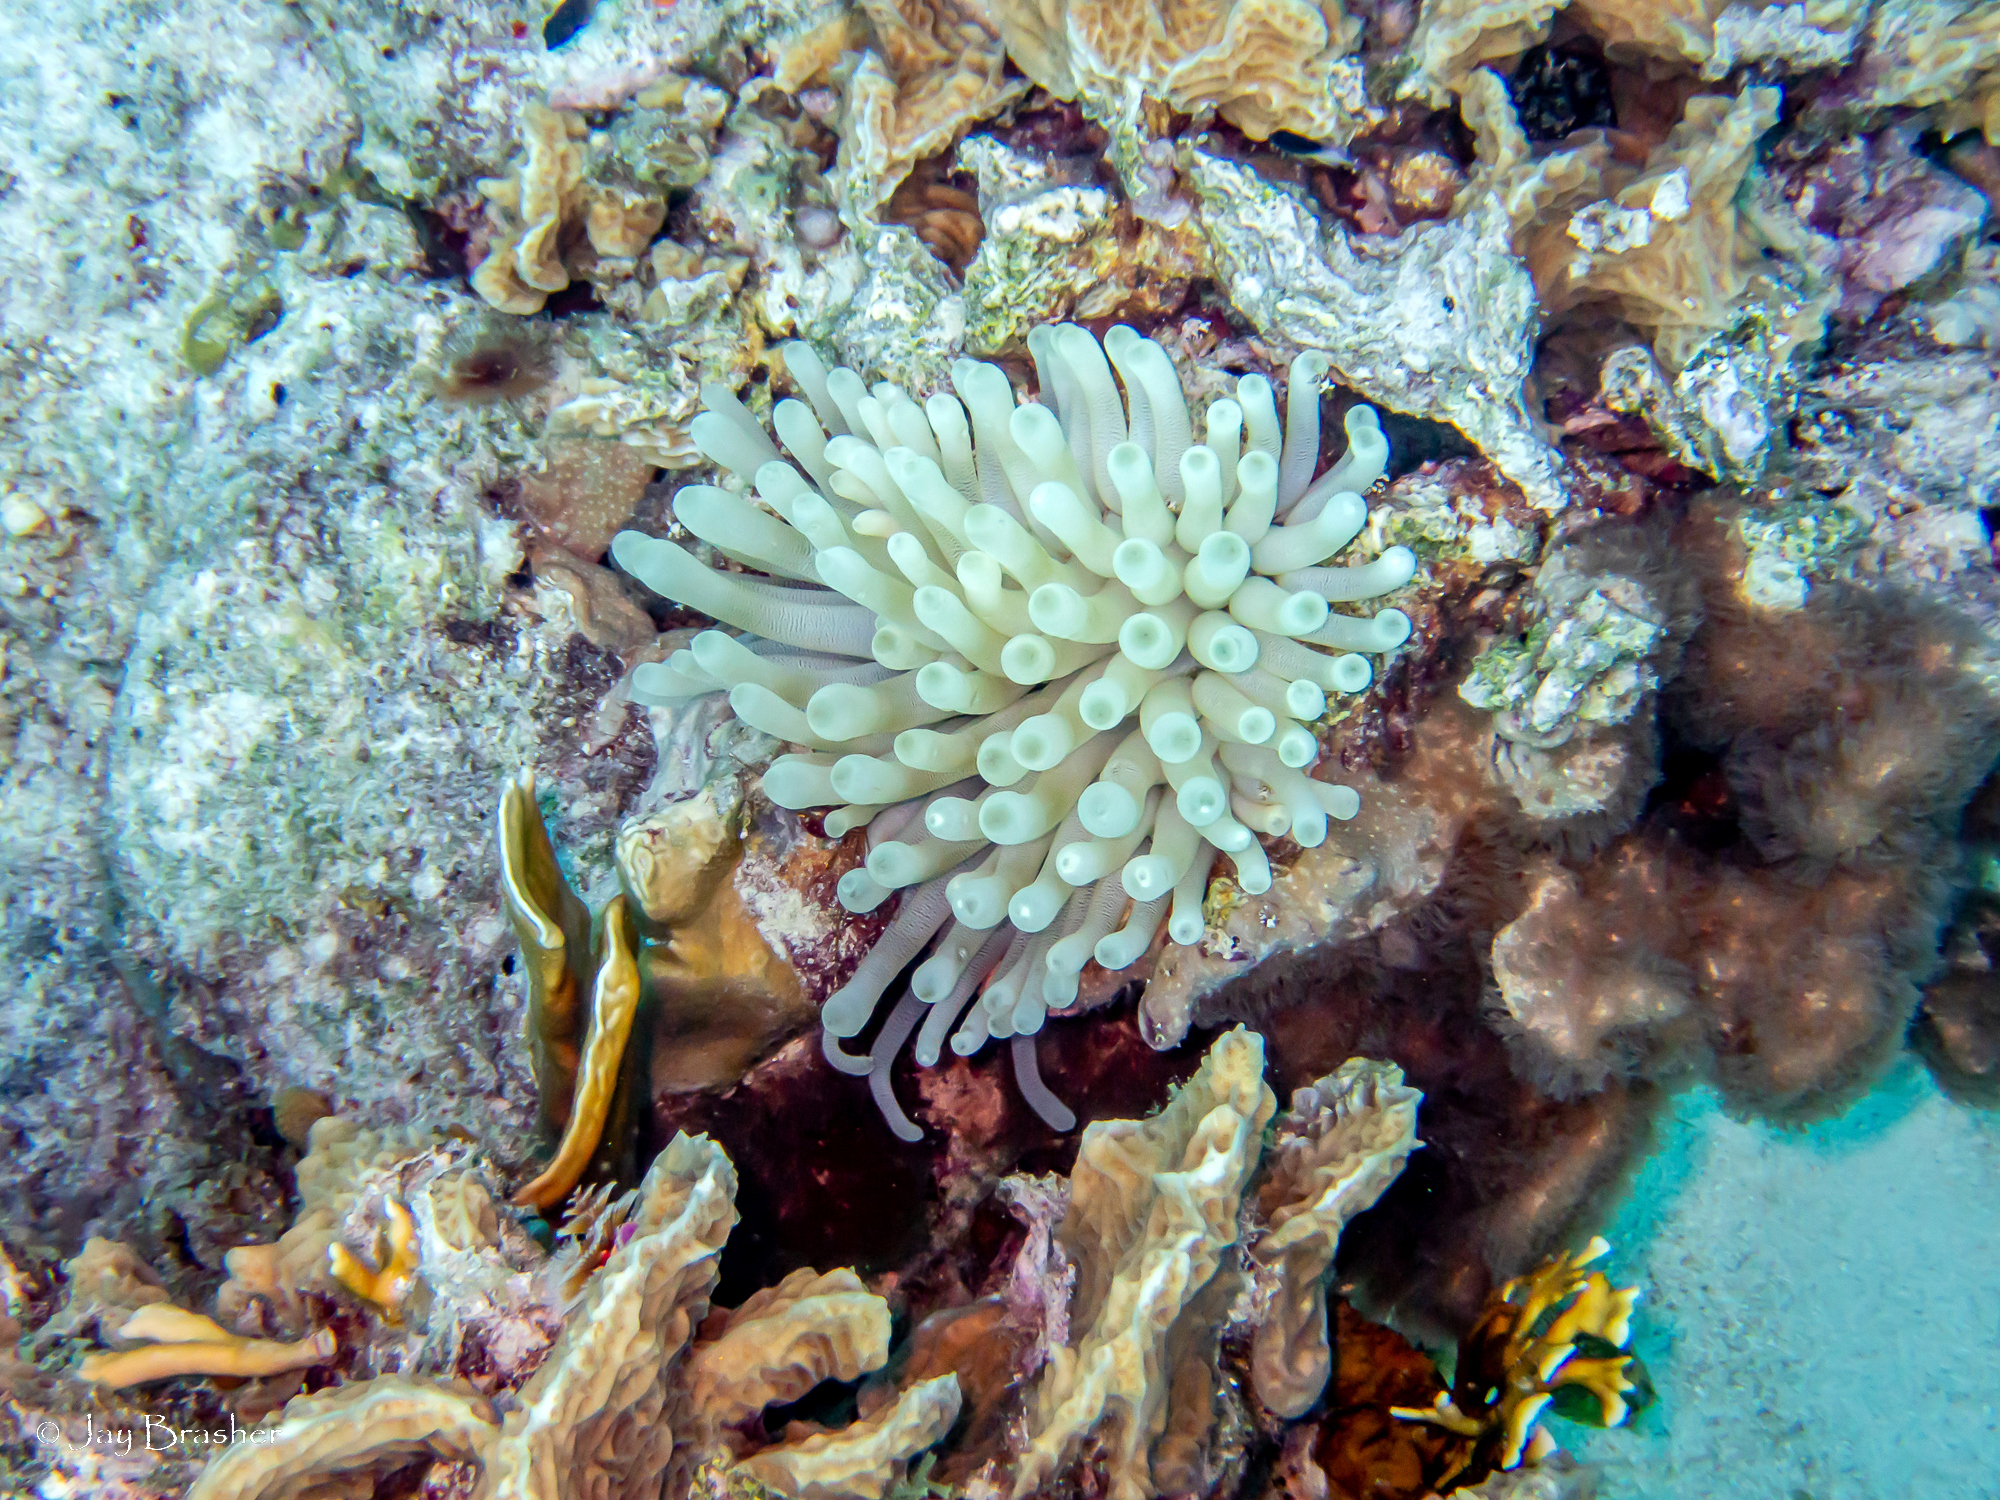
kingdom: Animalia
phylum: Cnidaria
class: Anthozoa
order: Scleralcyonacea
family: Erythropodiidae
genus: Erythropodium
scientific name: Erythropodium caribaeorum
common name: Encrusting gorgonian
